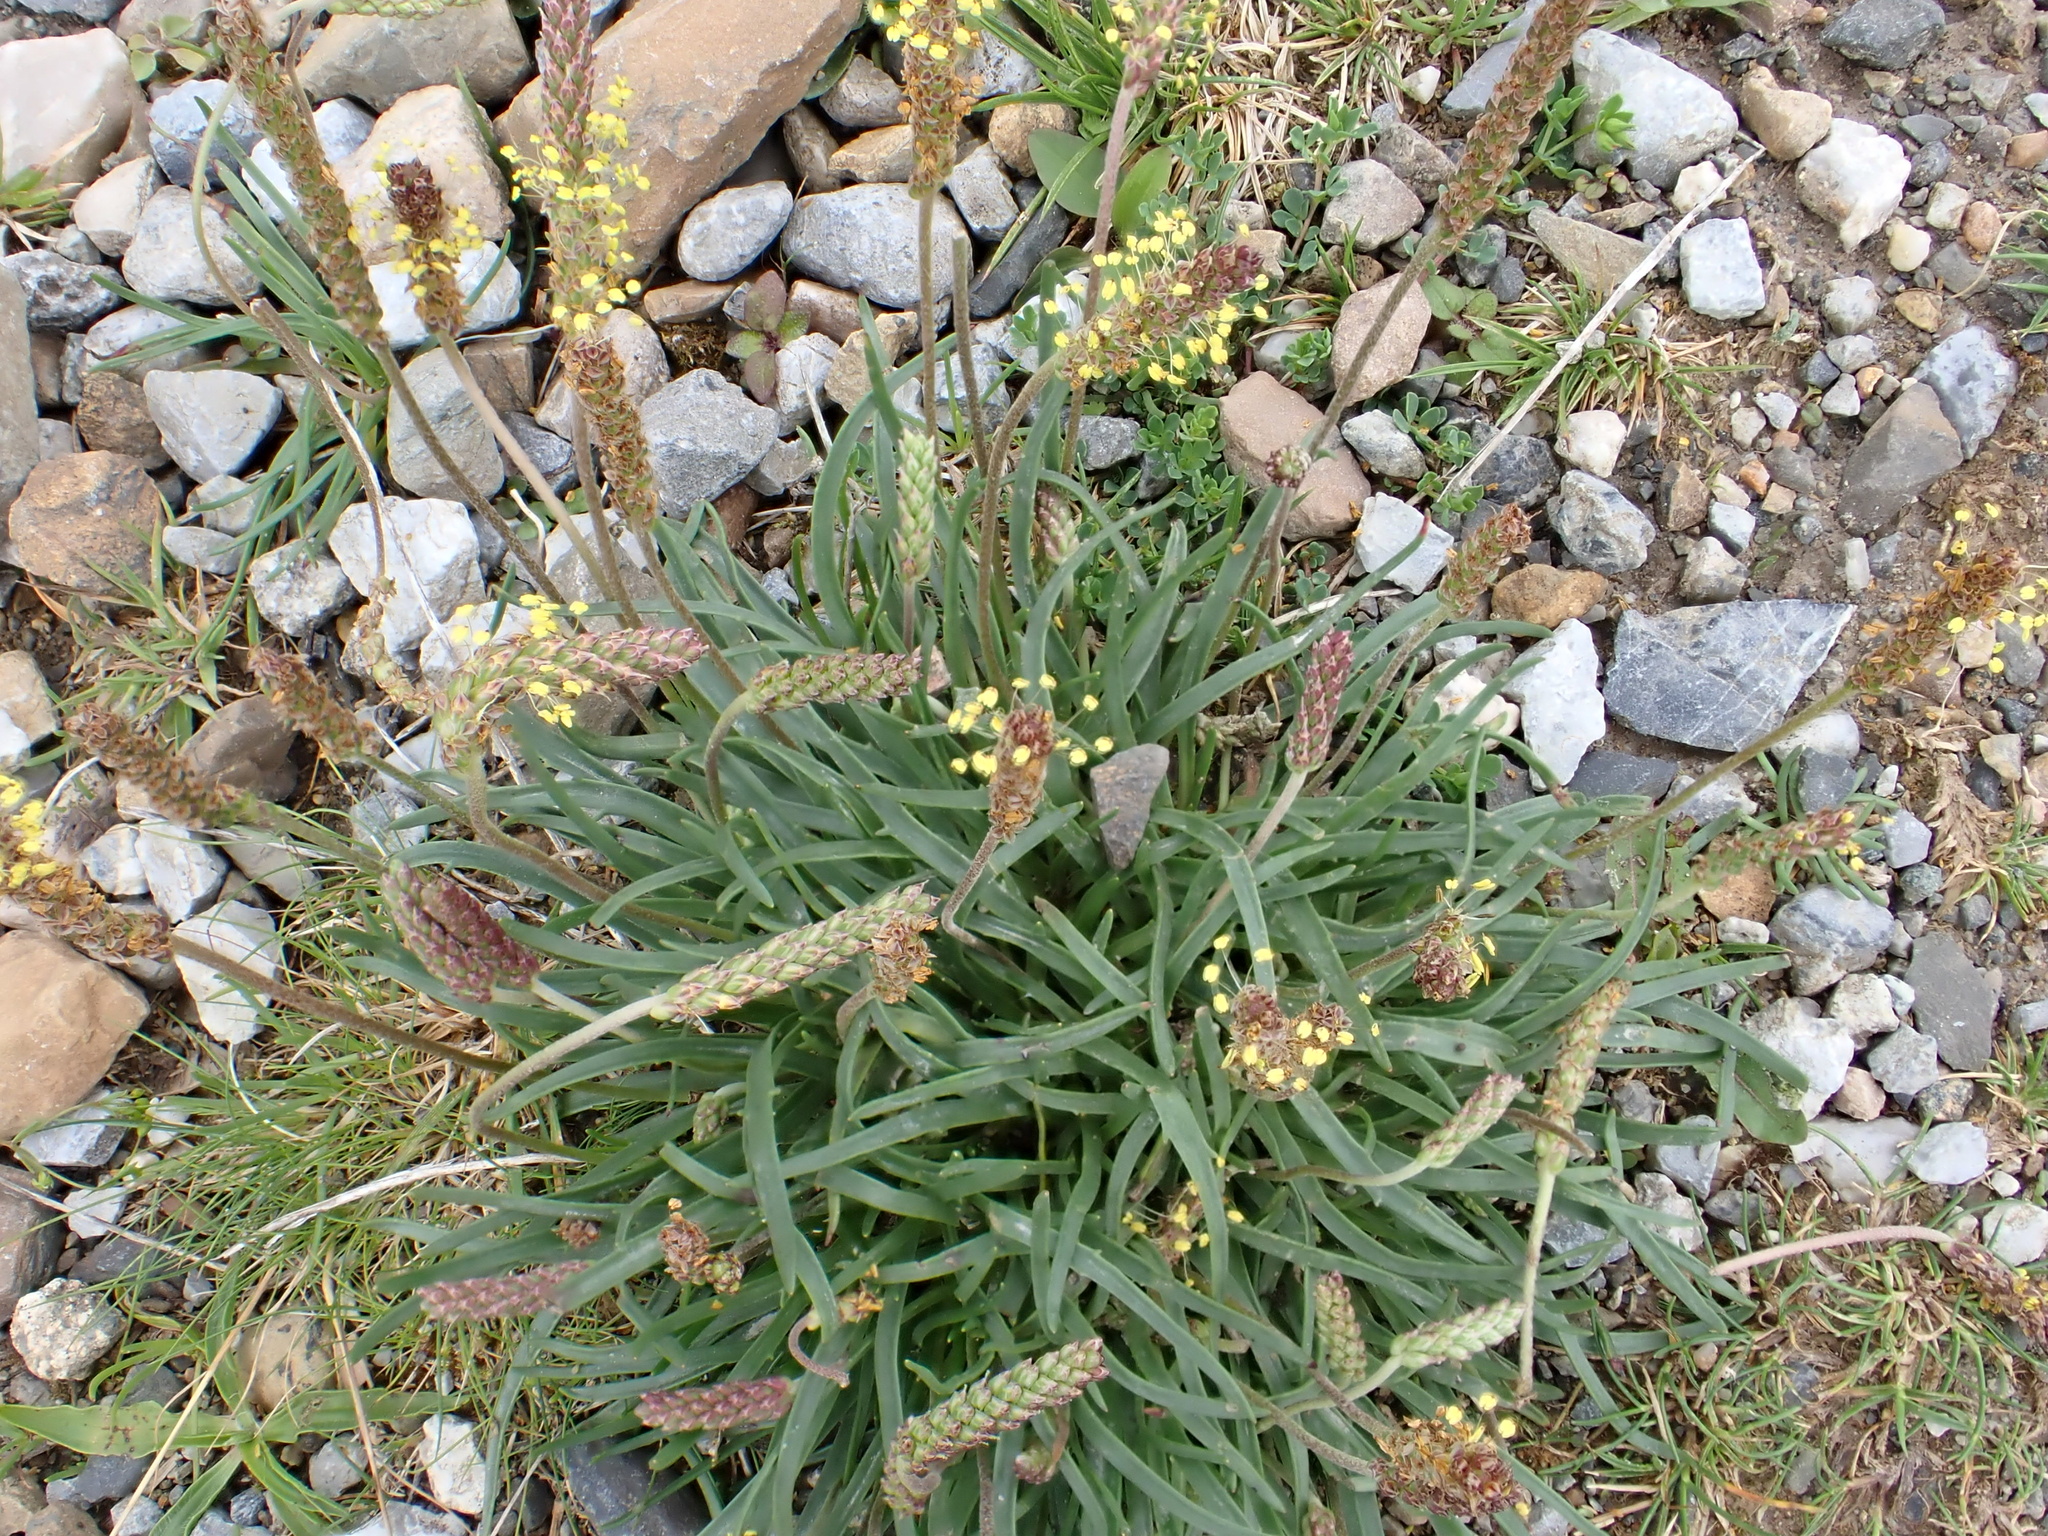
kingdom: Plantae
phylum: Tracheophyta
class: Magnoliopsida
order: Lamiales
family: Plantaginaceae
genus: Plantago
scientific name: Plantago maritima
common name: Sea plantain
